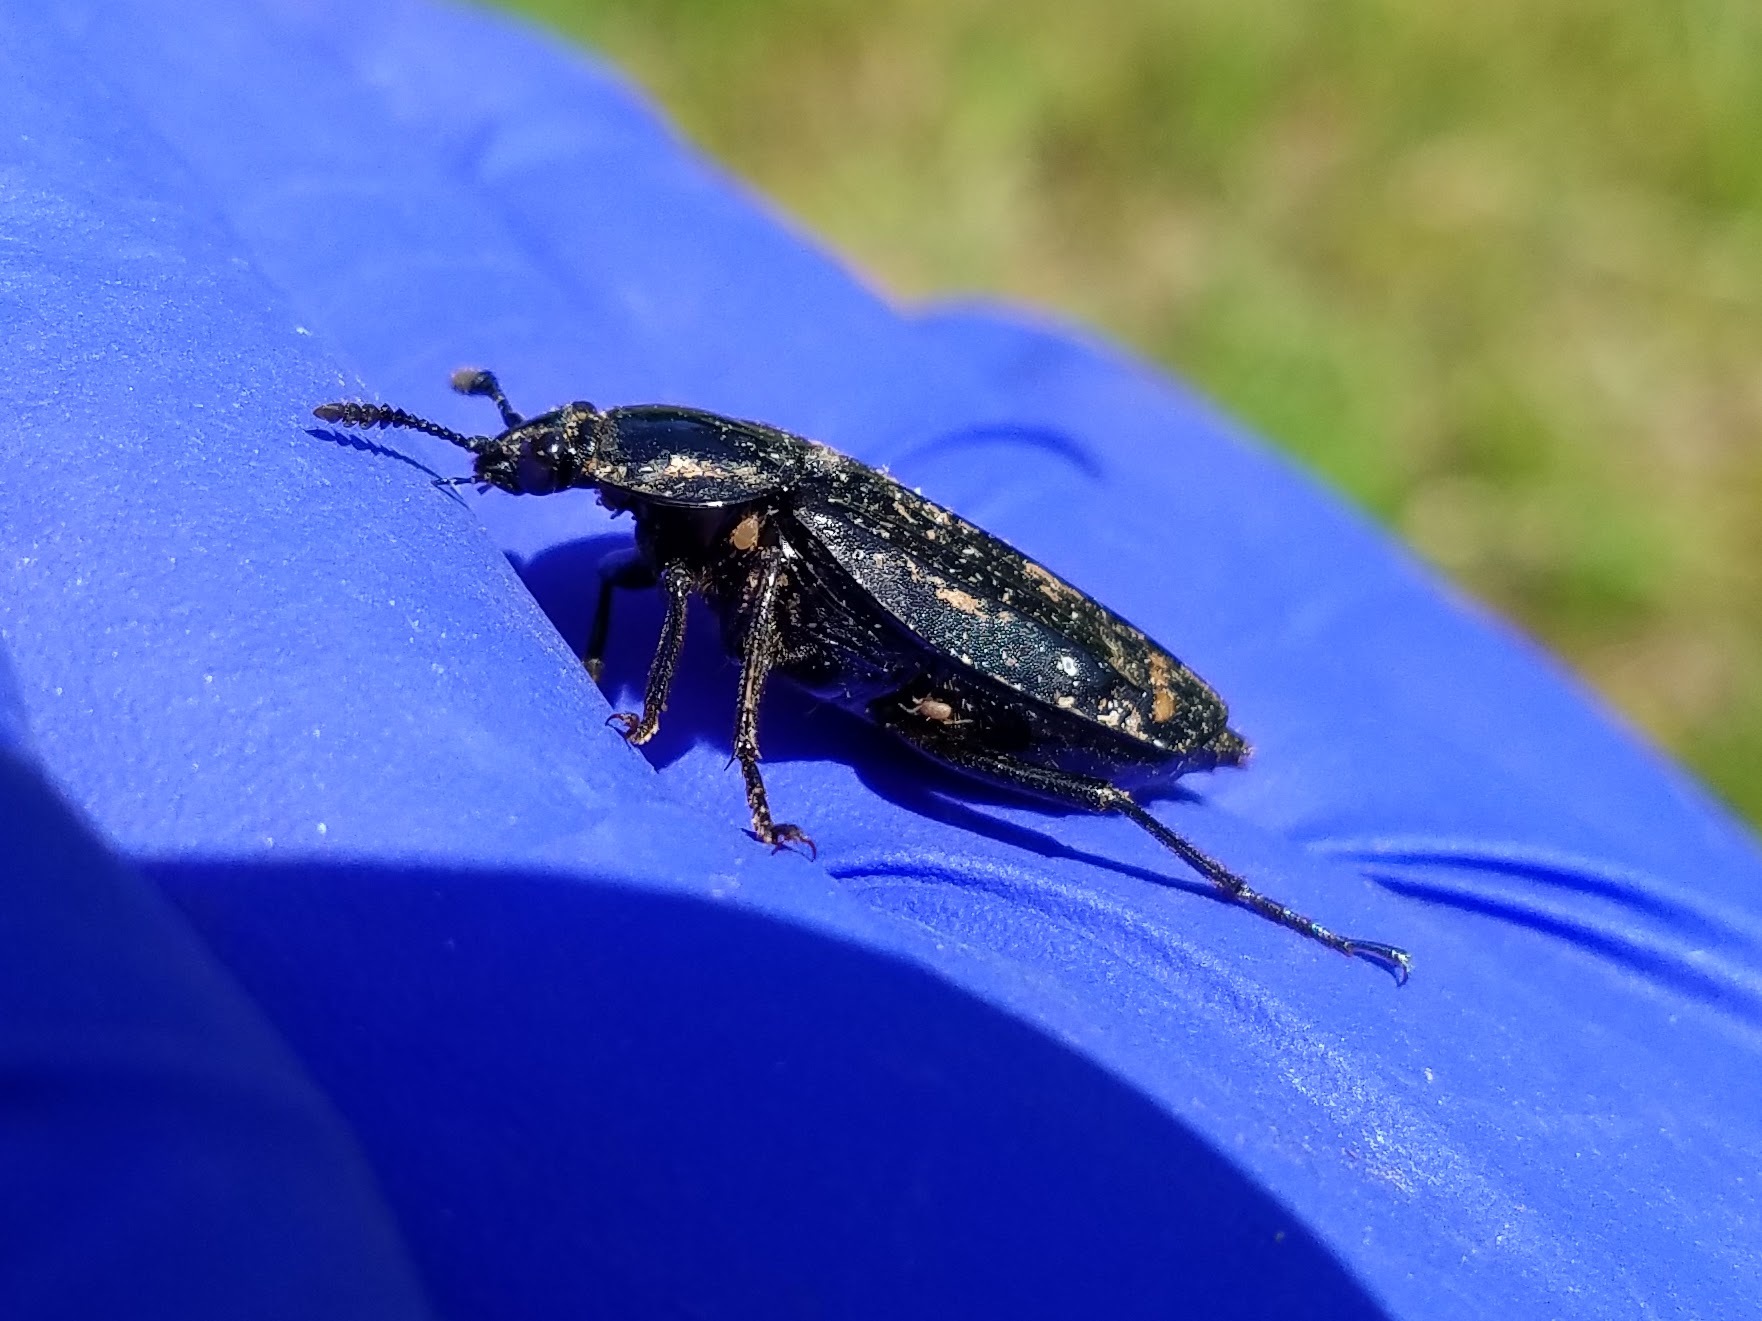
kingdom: Animalia
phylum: Arthropoda
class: Insecta
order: Coleoptera
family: Staphylinidae
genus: Necrodes
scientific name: Necrodes surinamensis
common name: Red-lined carrion beetle
